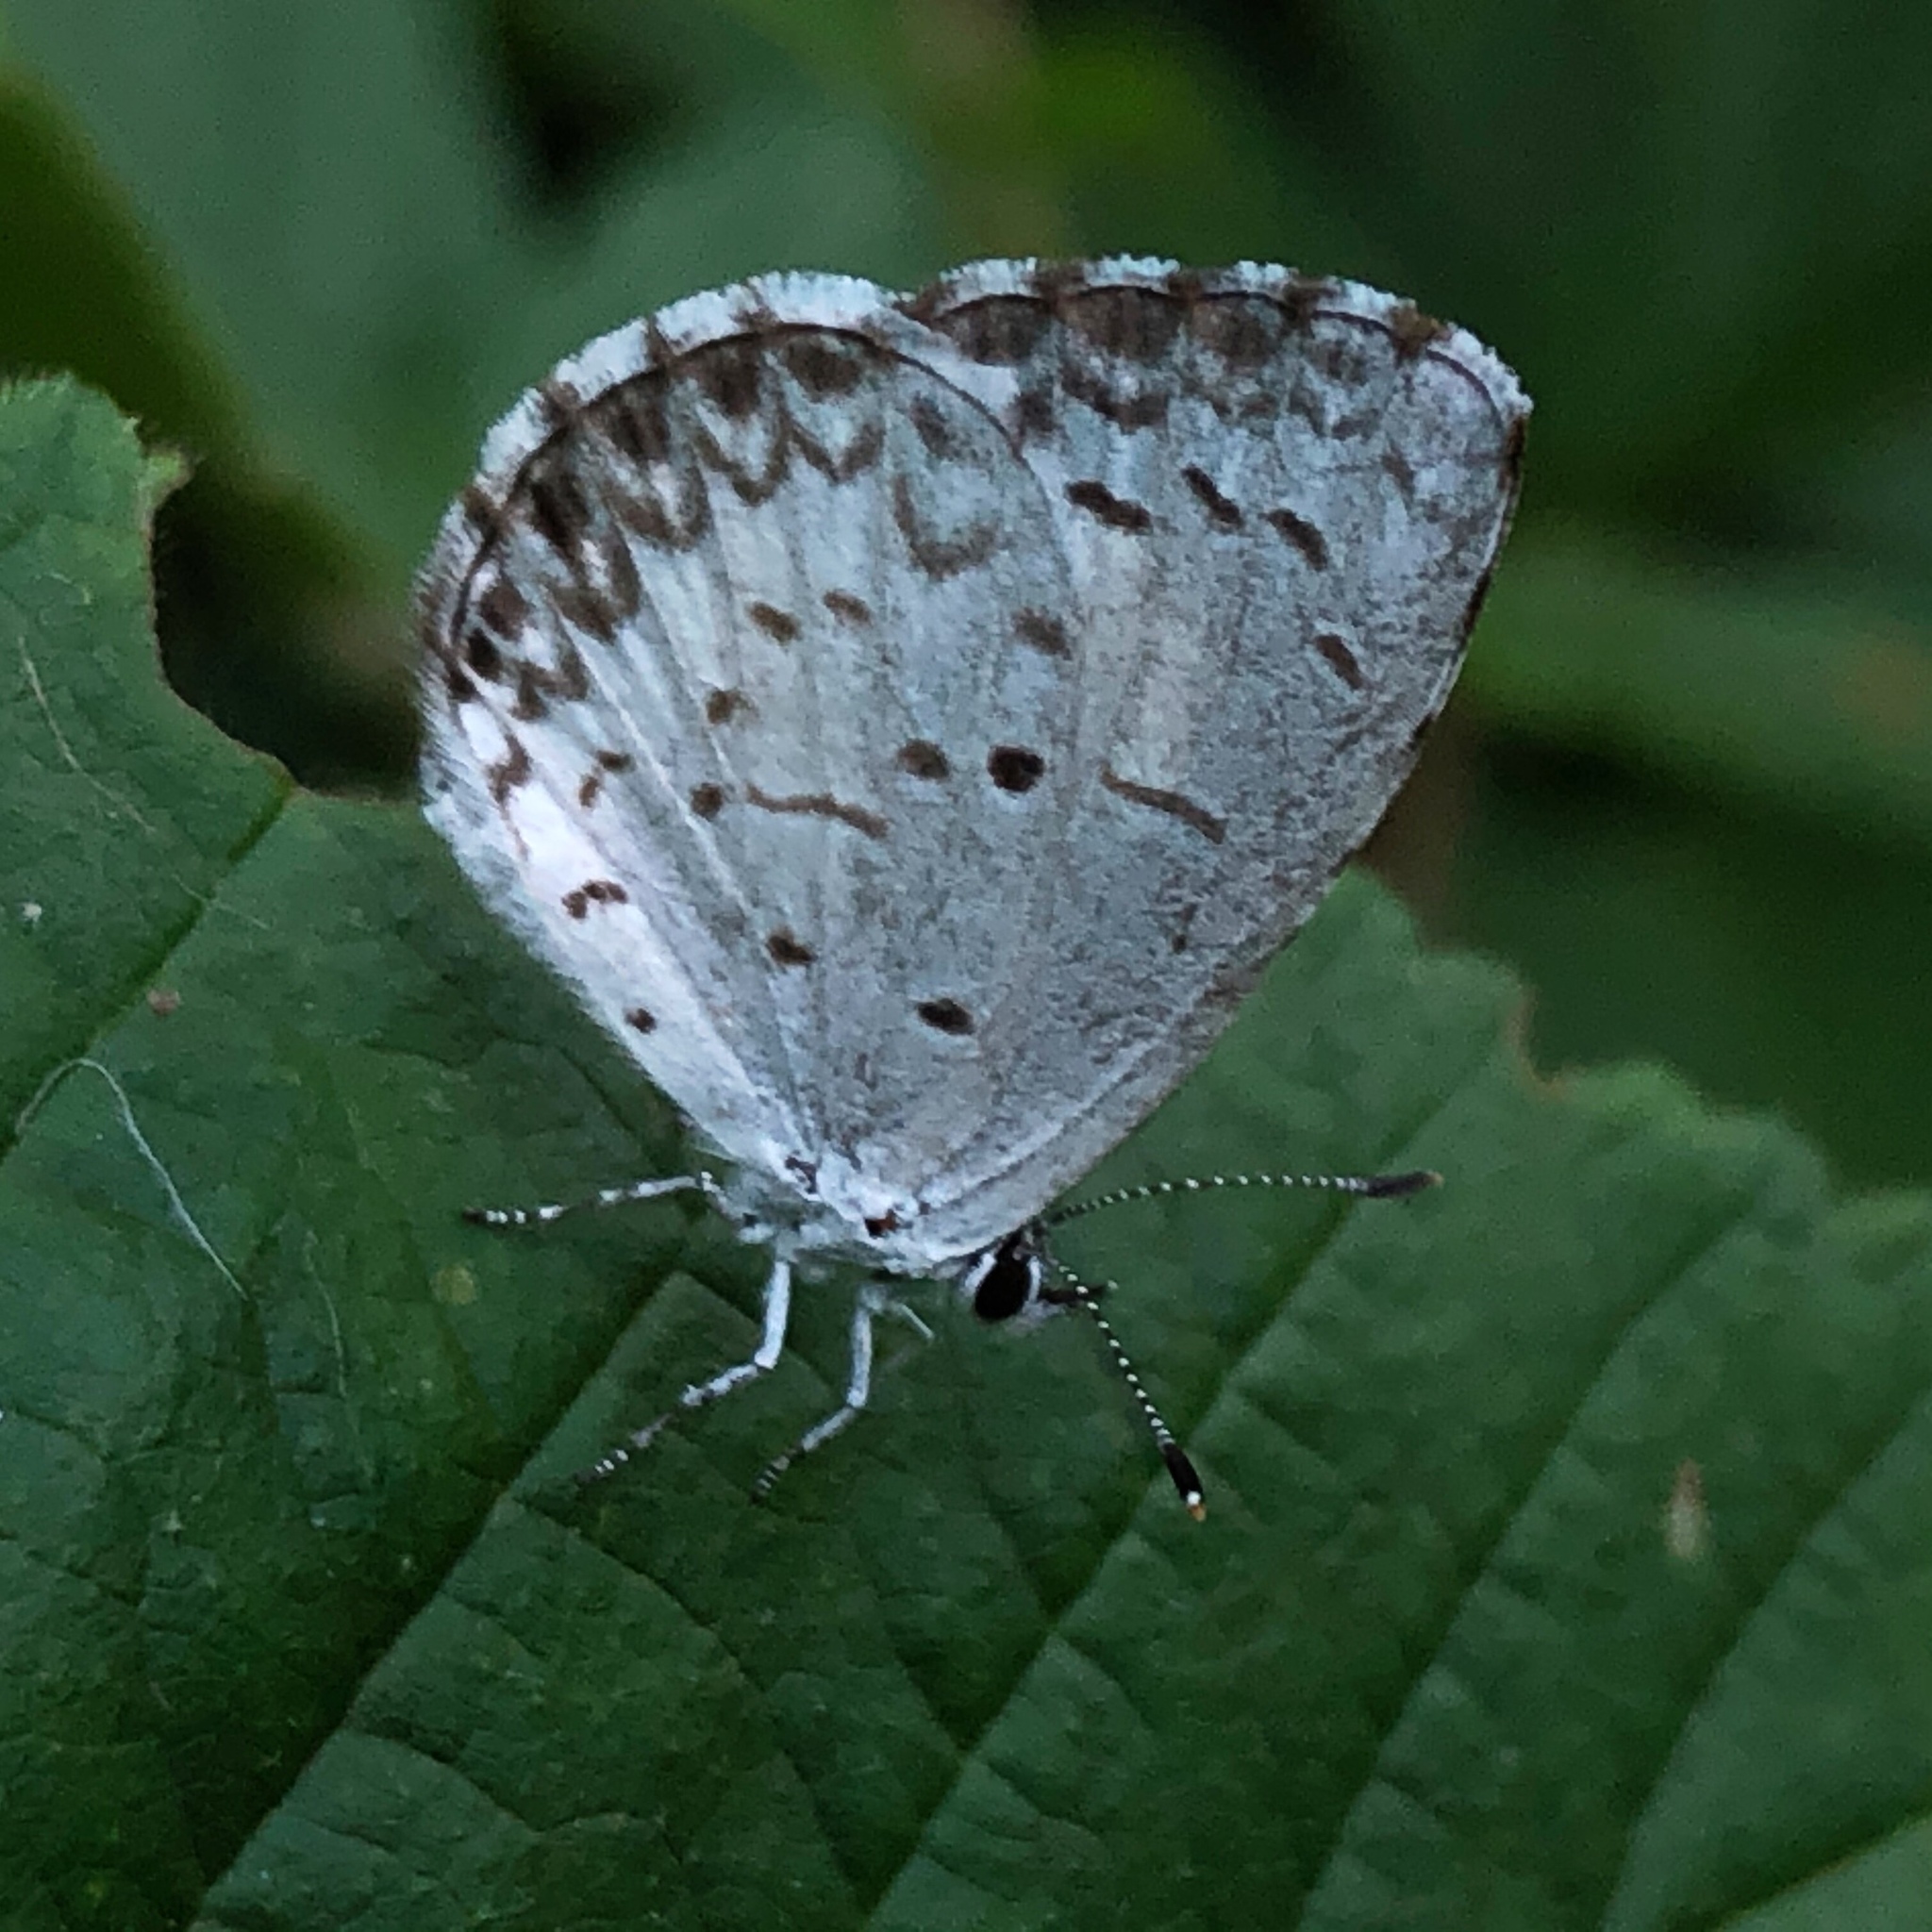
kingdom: Animalia
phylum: Arthropoda
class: Insecta
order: Lepidoptera
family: Lycaenidae
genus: Cyaniris
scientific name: Cyaniris neglecta
